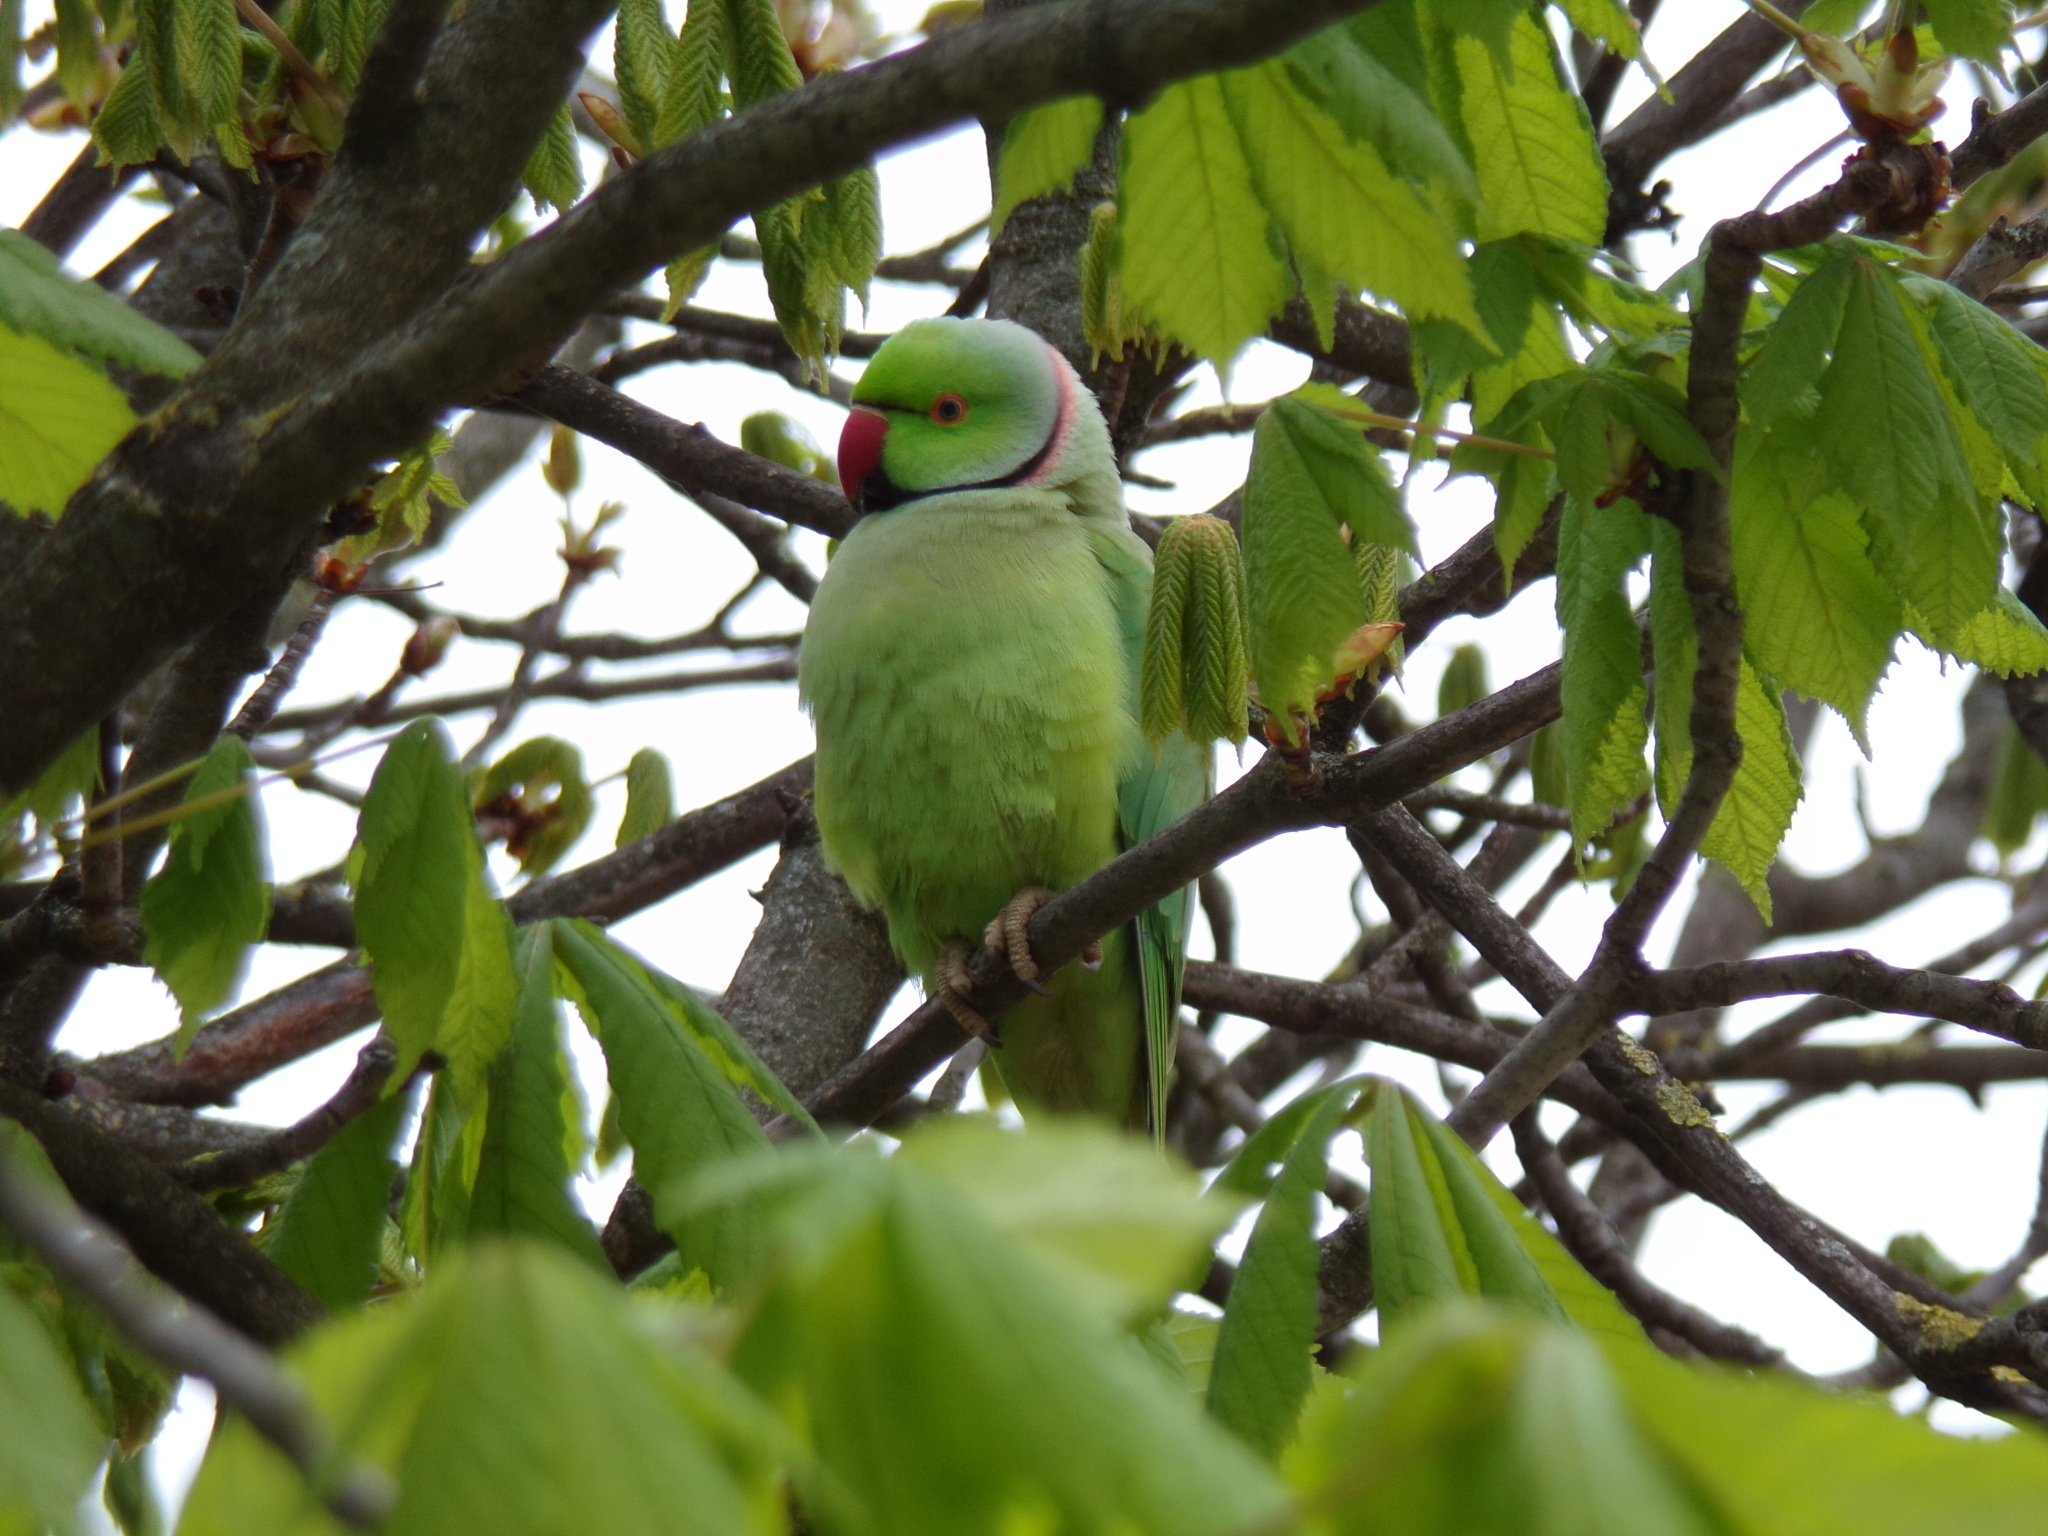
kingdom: Animalia
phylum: Chordata
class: Aves
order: Psittaciformes
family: Psittacidae
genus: Psittacula
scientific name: Psittacula krameri
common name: Rose-ringed parakeet
